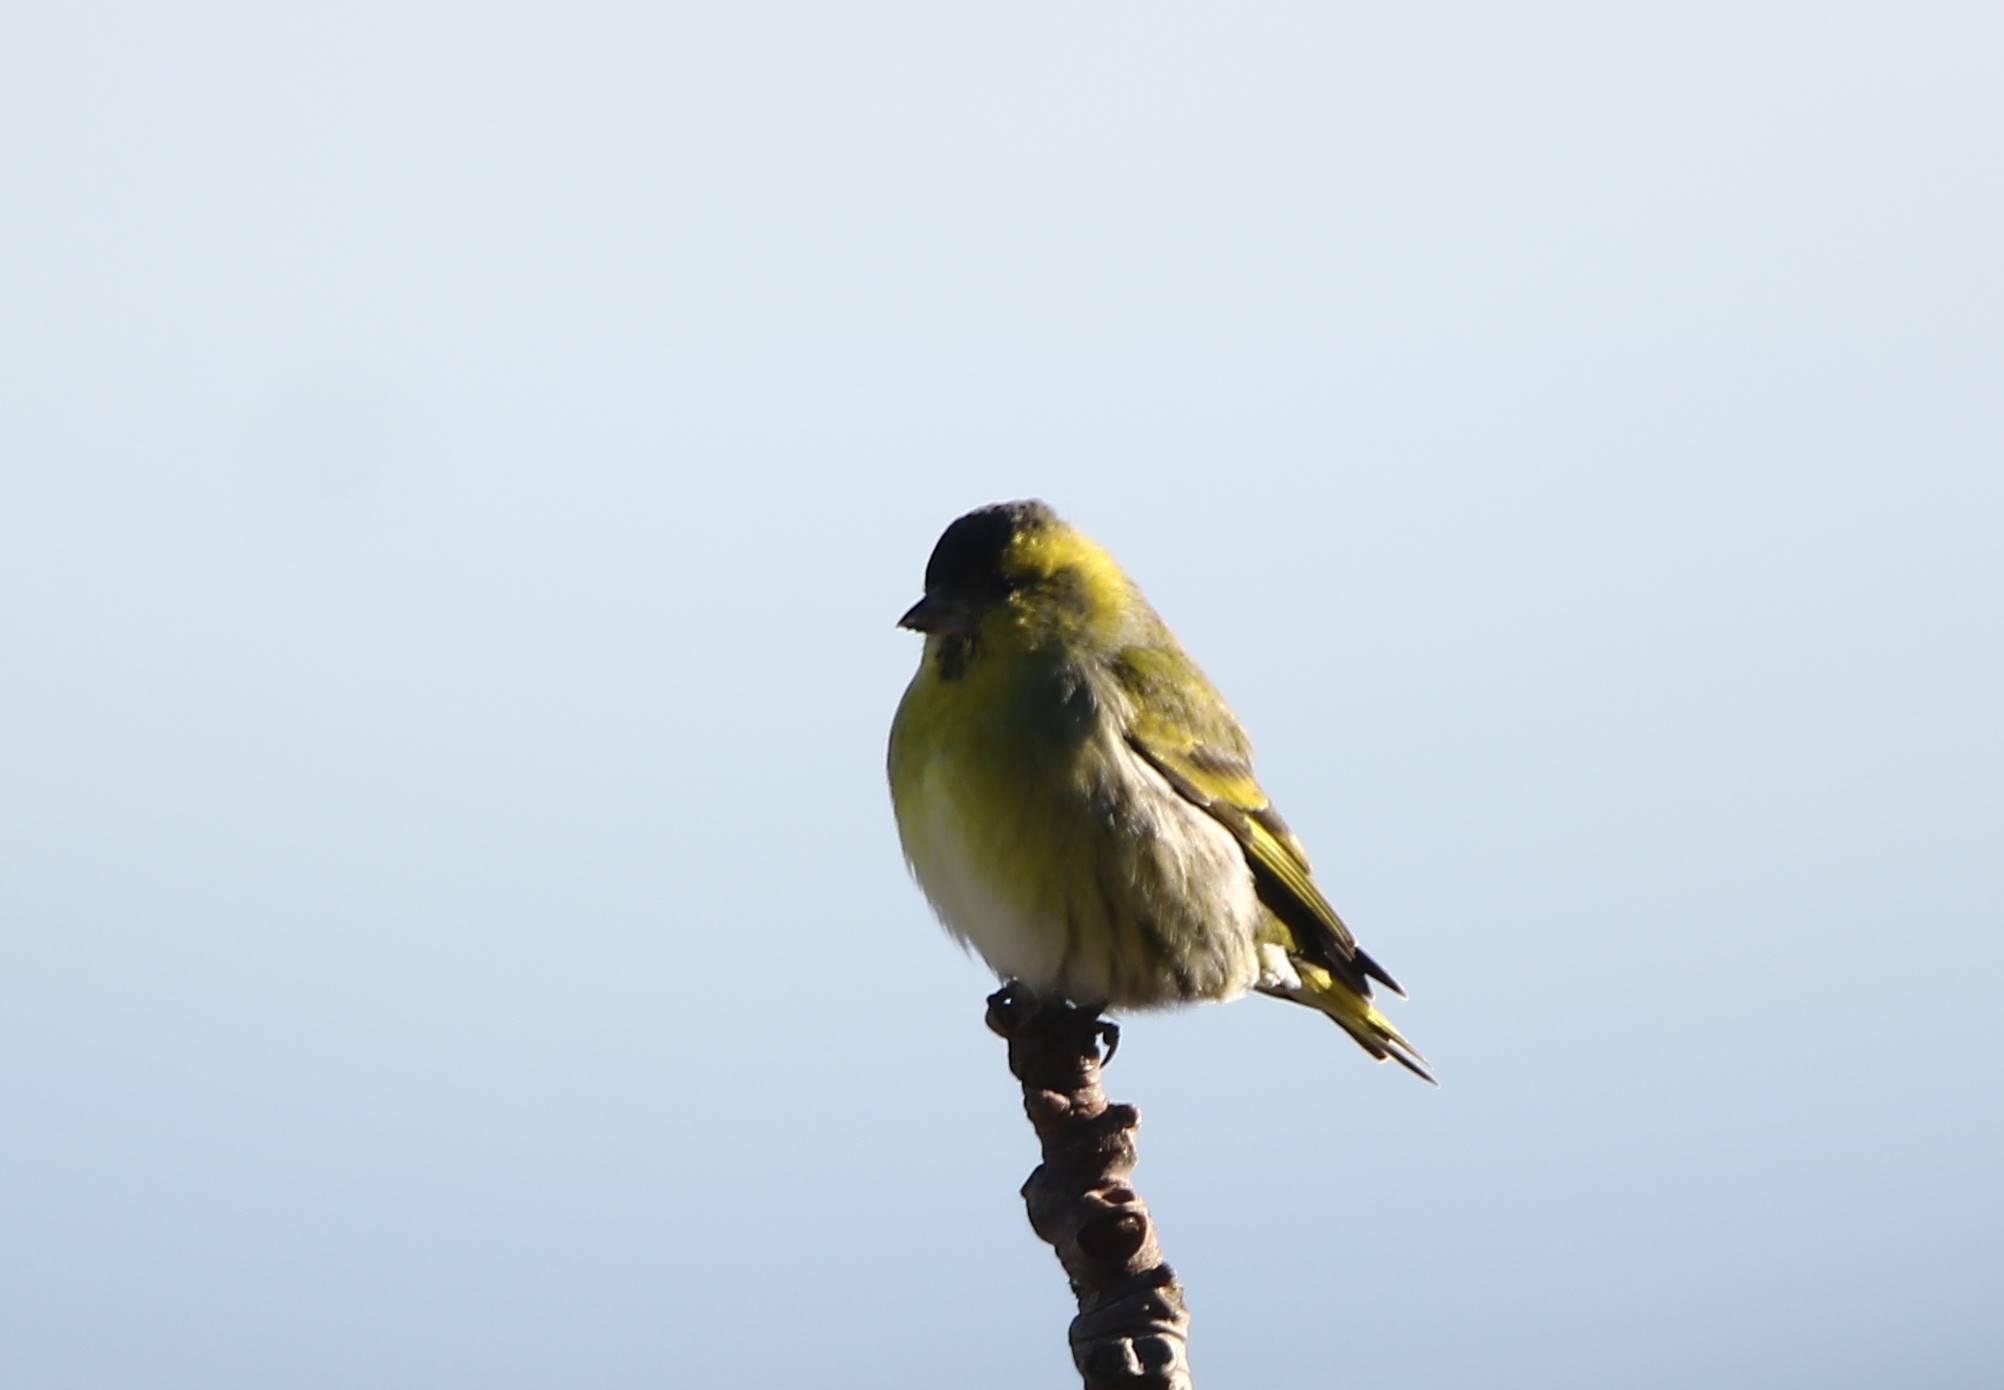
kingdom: Animalia
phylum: Chordata
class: Aves
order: Passeriformes
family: Fringillidae
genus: Spinus
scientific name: Spinus spinus
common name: Eurasian siskin
